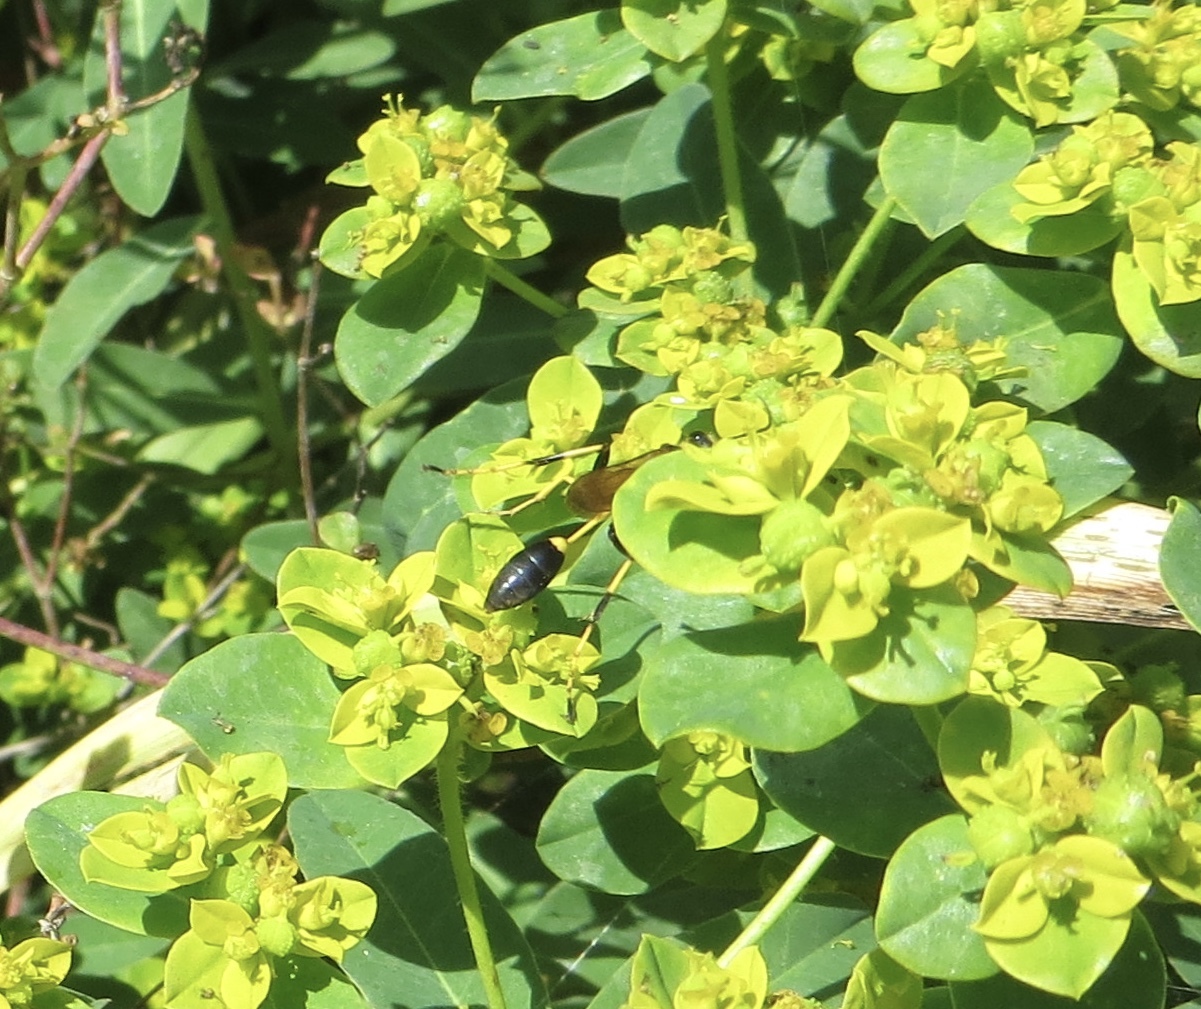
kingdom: Animalia
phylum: Arthropoda
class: Insecta
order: Hymenoptera
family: Sphecidae
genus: Sceliphron
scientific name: Sceliphron caementarium
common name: Mud dauber
